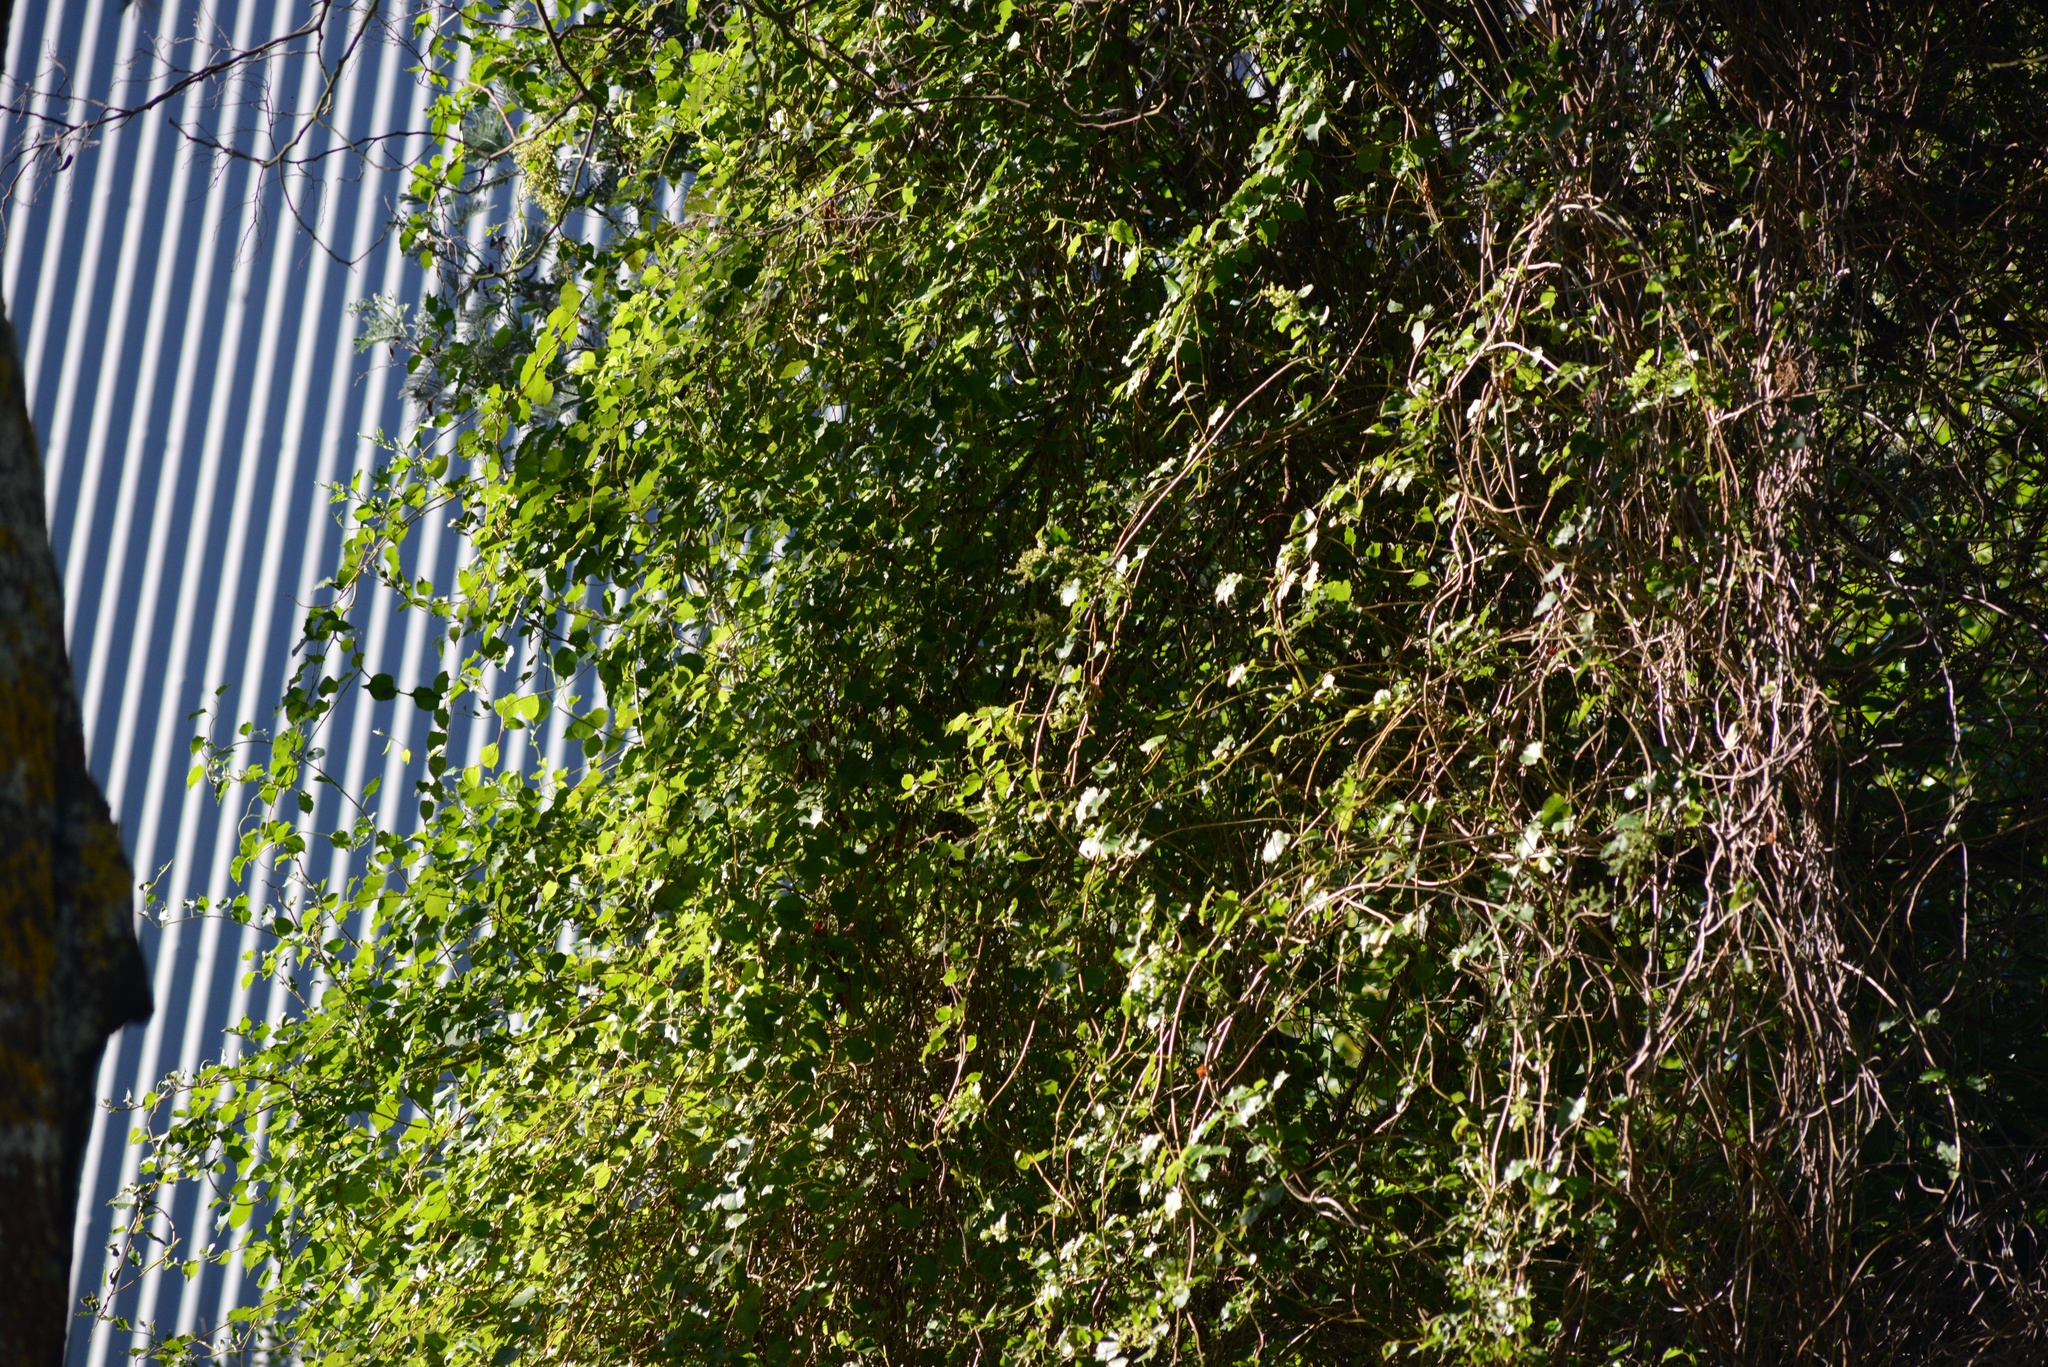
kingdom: Plantae
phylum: Tracheophyta
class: Magnoliopsida
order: Caryophyllales
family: Polygonaceae
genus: Muehlenbeckia
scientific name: Muehlenbeckia australis
